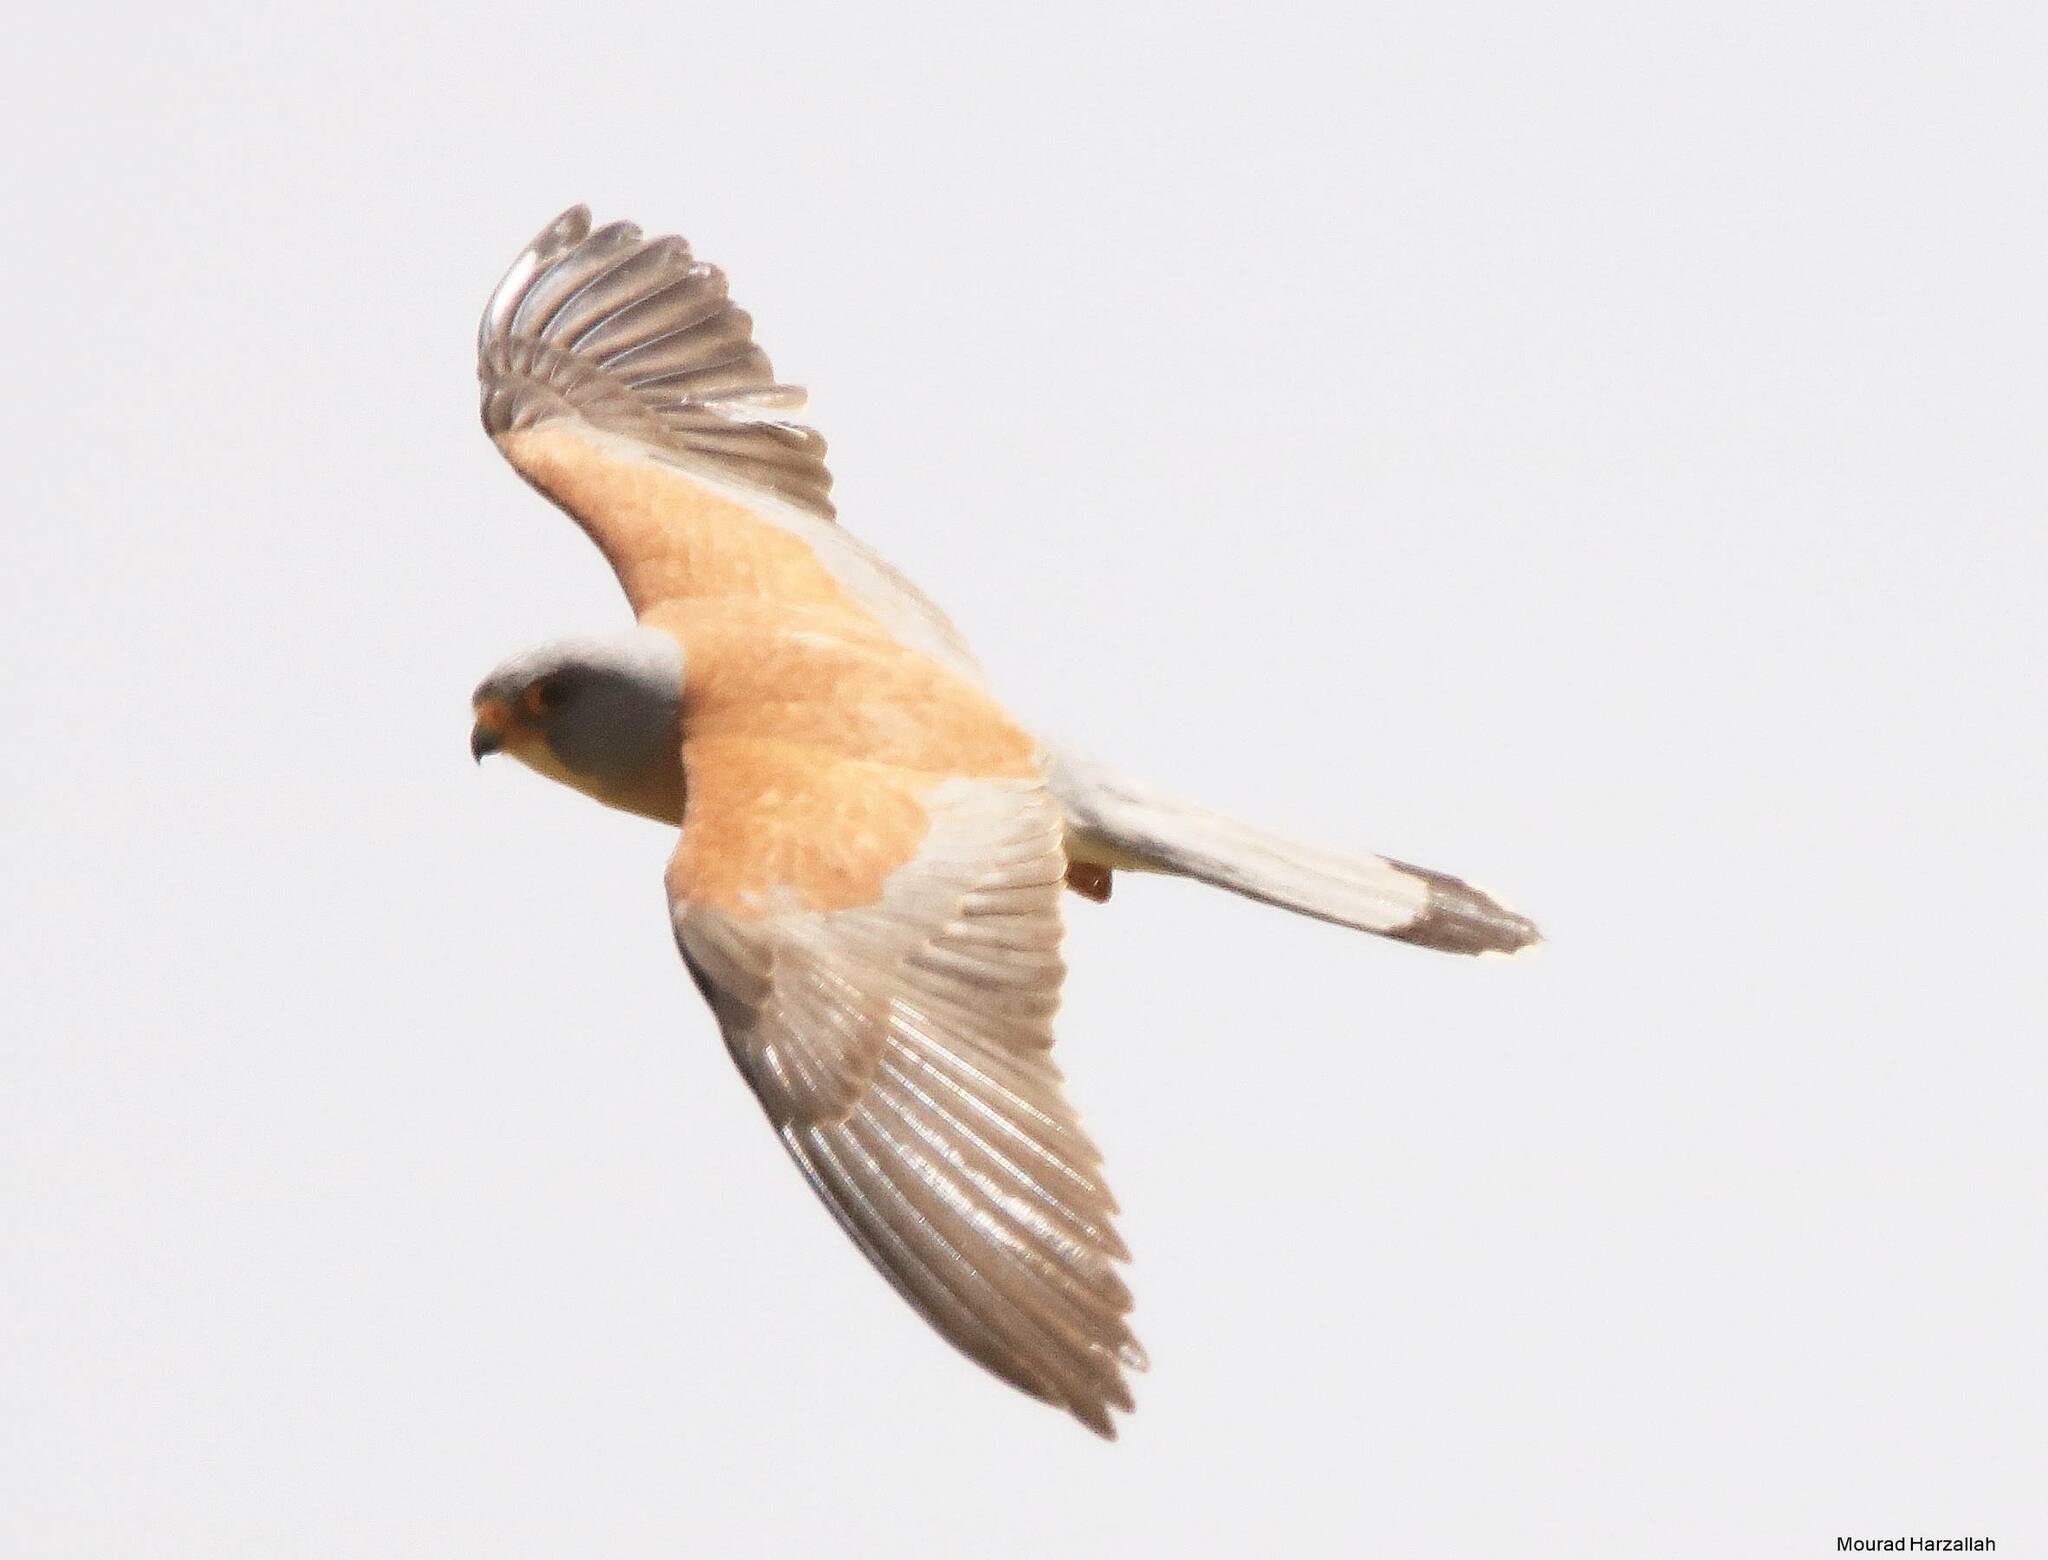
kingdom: Animalia
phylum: Chordata
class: Aves
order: Falconiformes
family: Falconidae
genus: Falco
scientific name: Falco naumanni
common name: Lesser kestrel
